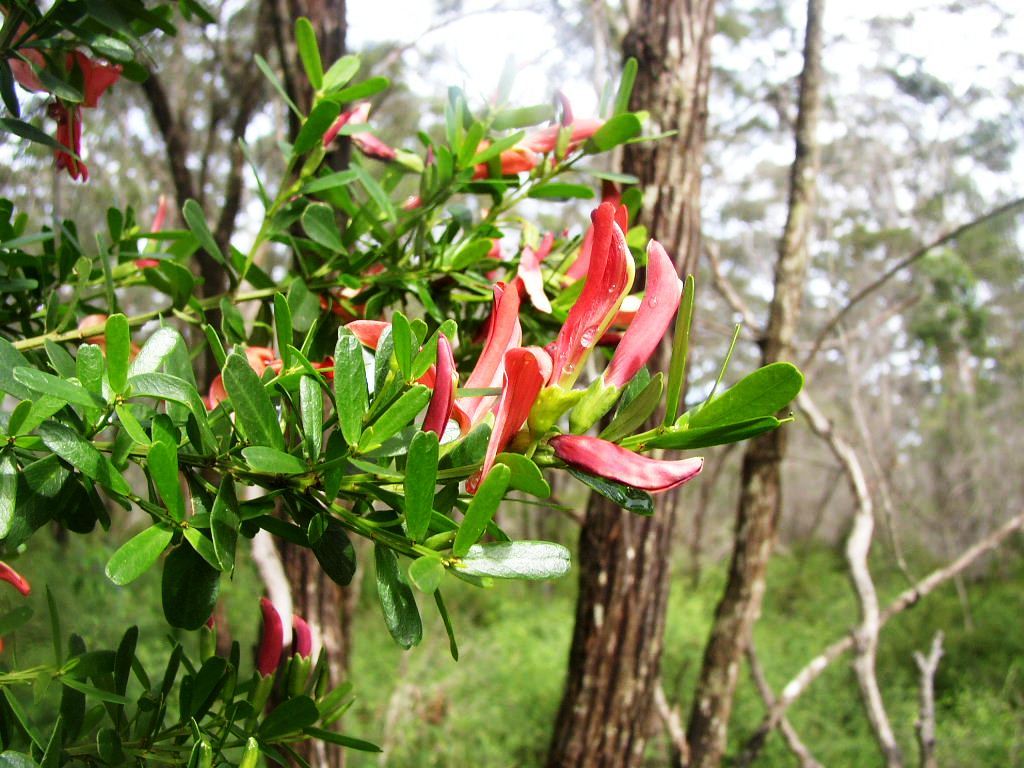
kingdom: Plantae
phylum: Tracheophyta
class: Magnoliopsida
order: Fabales
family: Fabaceae
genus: Templetonia
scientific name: Templetonia retusa
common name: Cockies'-tongue
